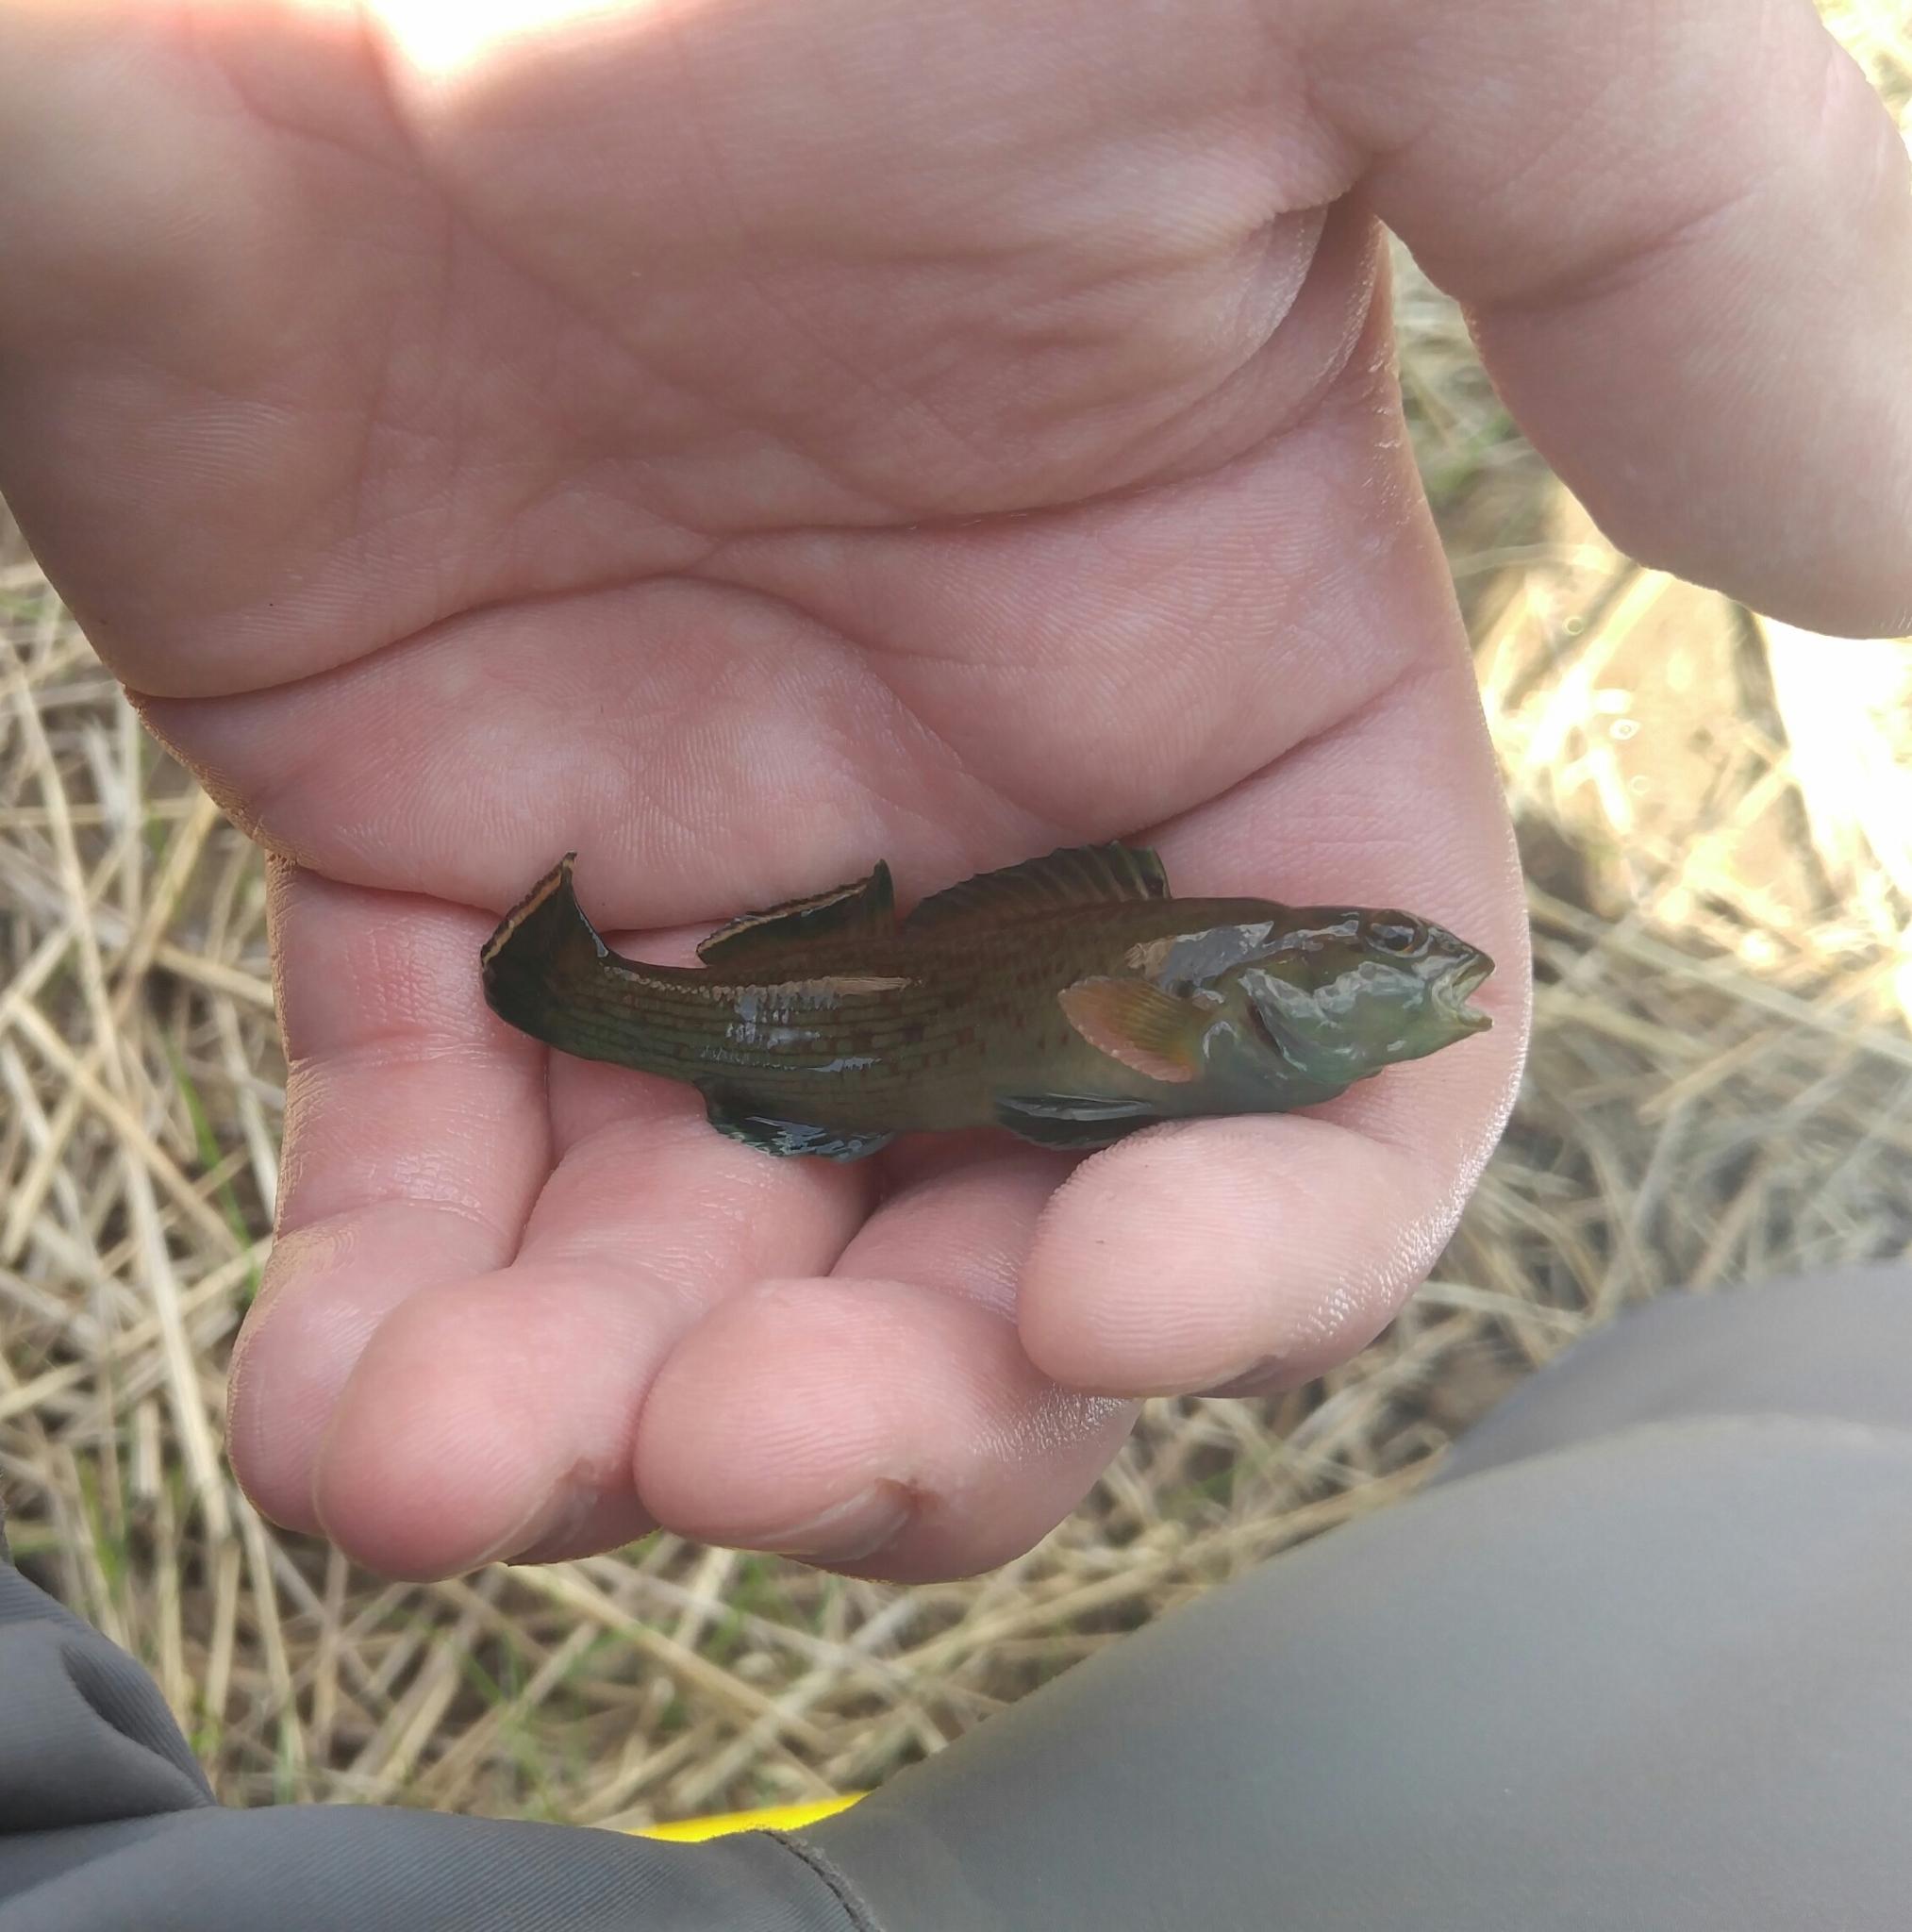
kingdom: Animalia
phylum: Chordata
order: Perciformes
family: Percidae
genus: Etheostoma
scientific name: Etheostoma chlorobranchium
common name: Greenfin darter
